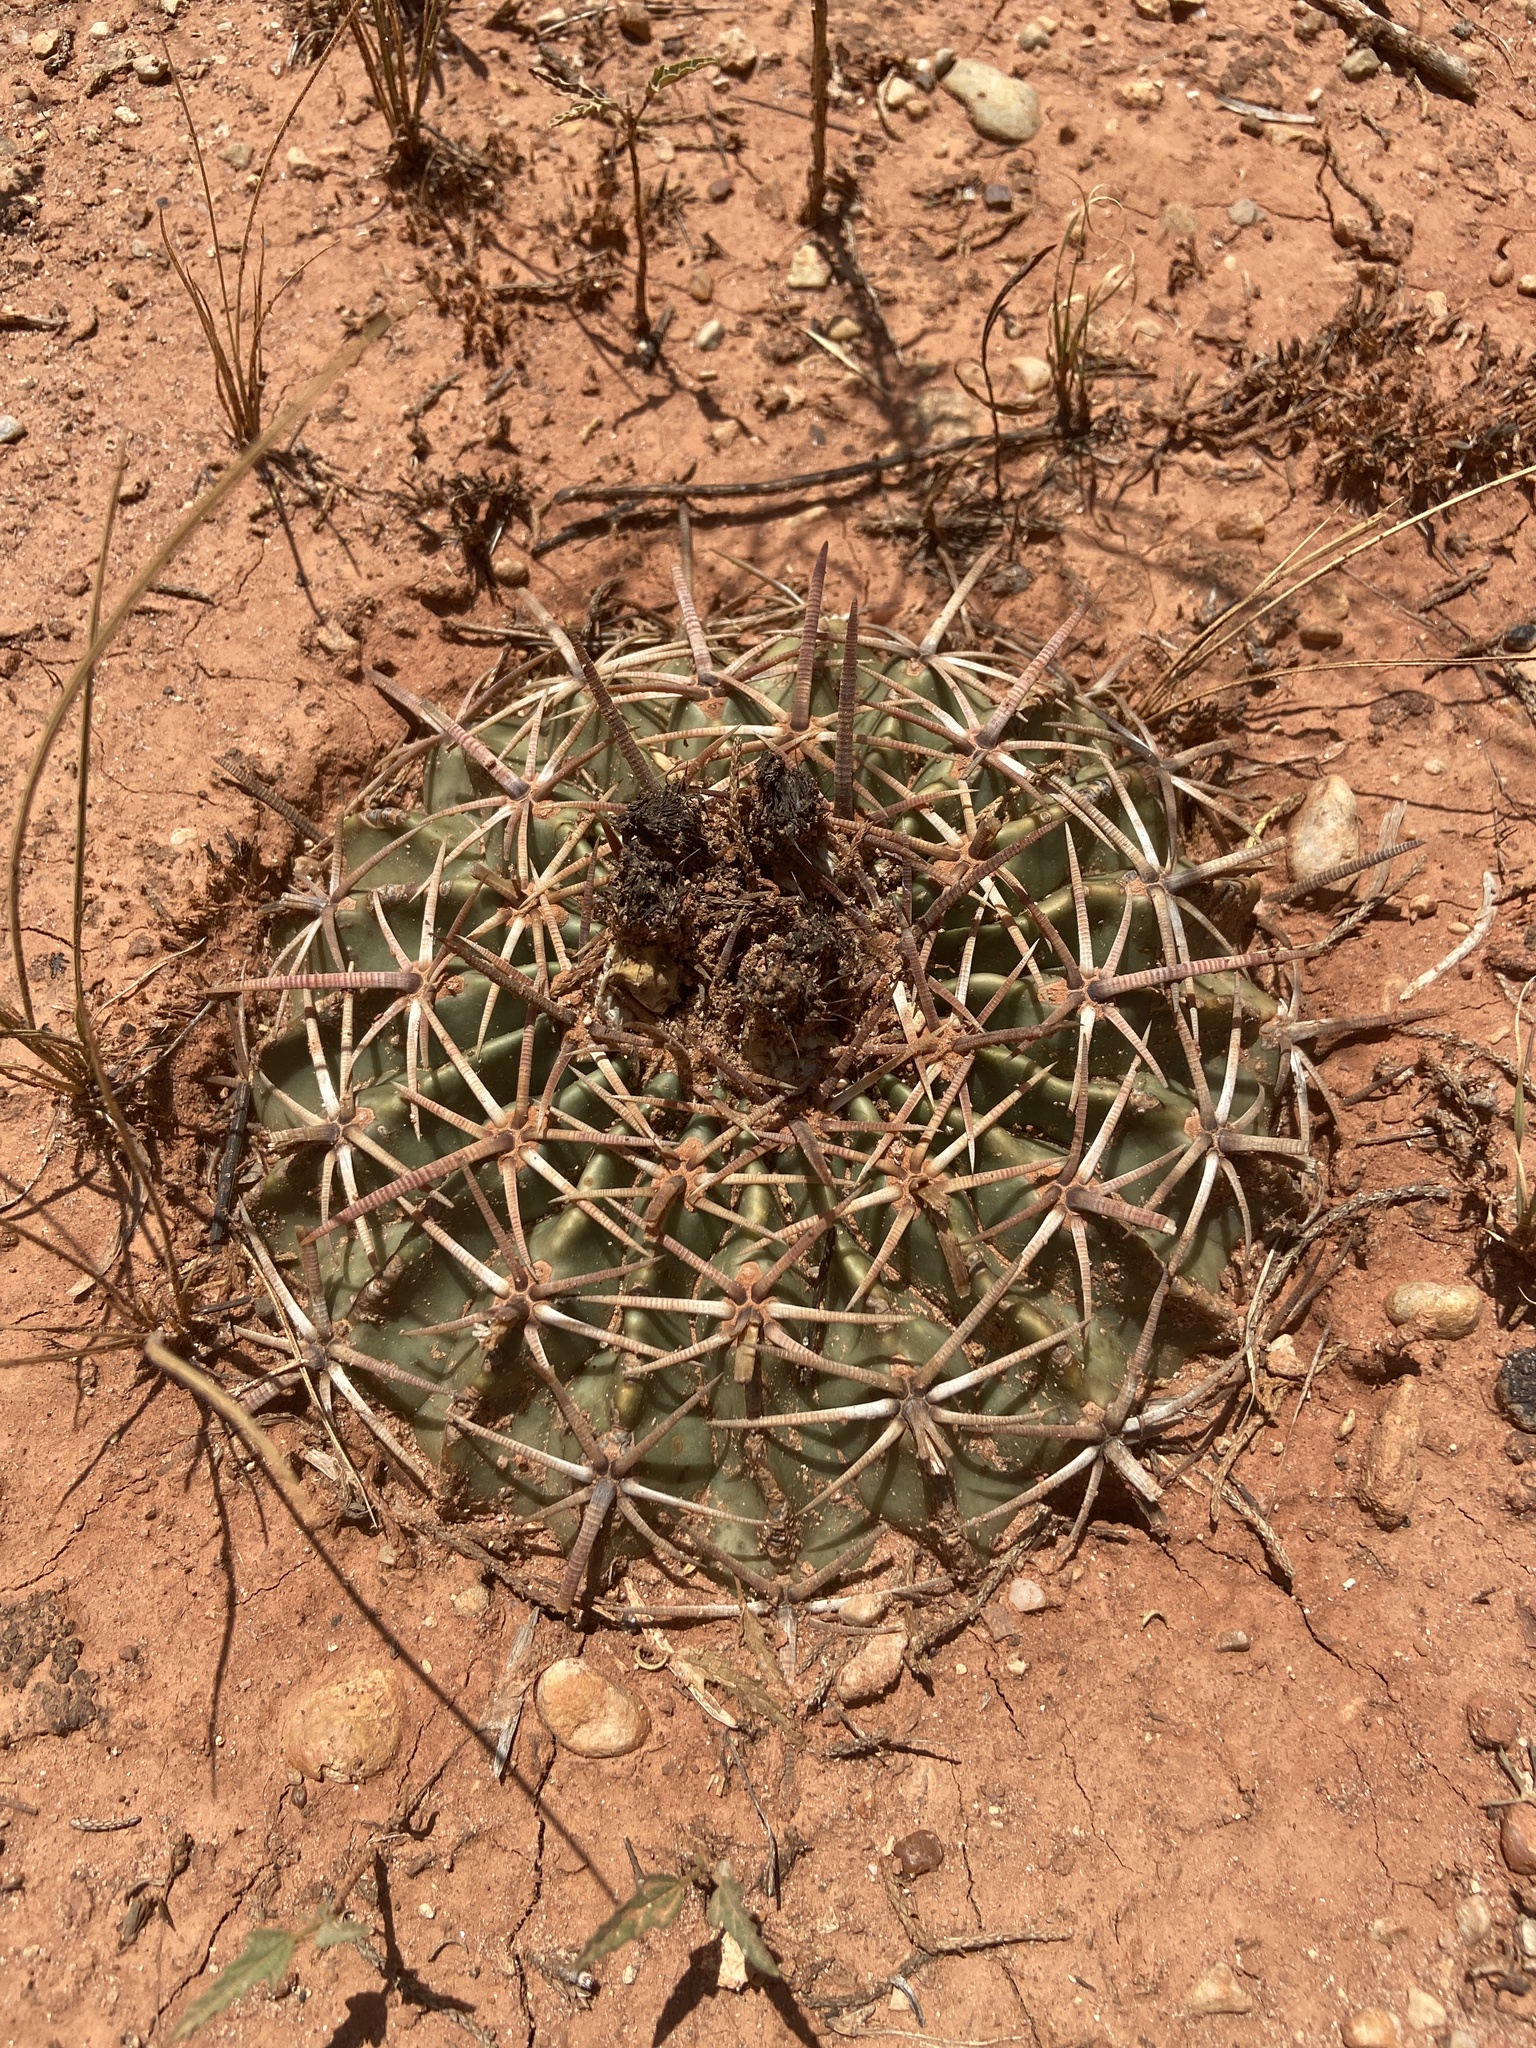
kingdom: Plantae
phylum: Tracheophyta
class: Magnoliopsida
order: Caryophyllales
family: Cactaceae
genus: Echinocactus
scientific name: Echinocactus texensis
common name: Devil's pincushion
